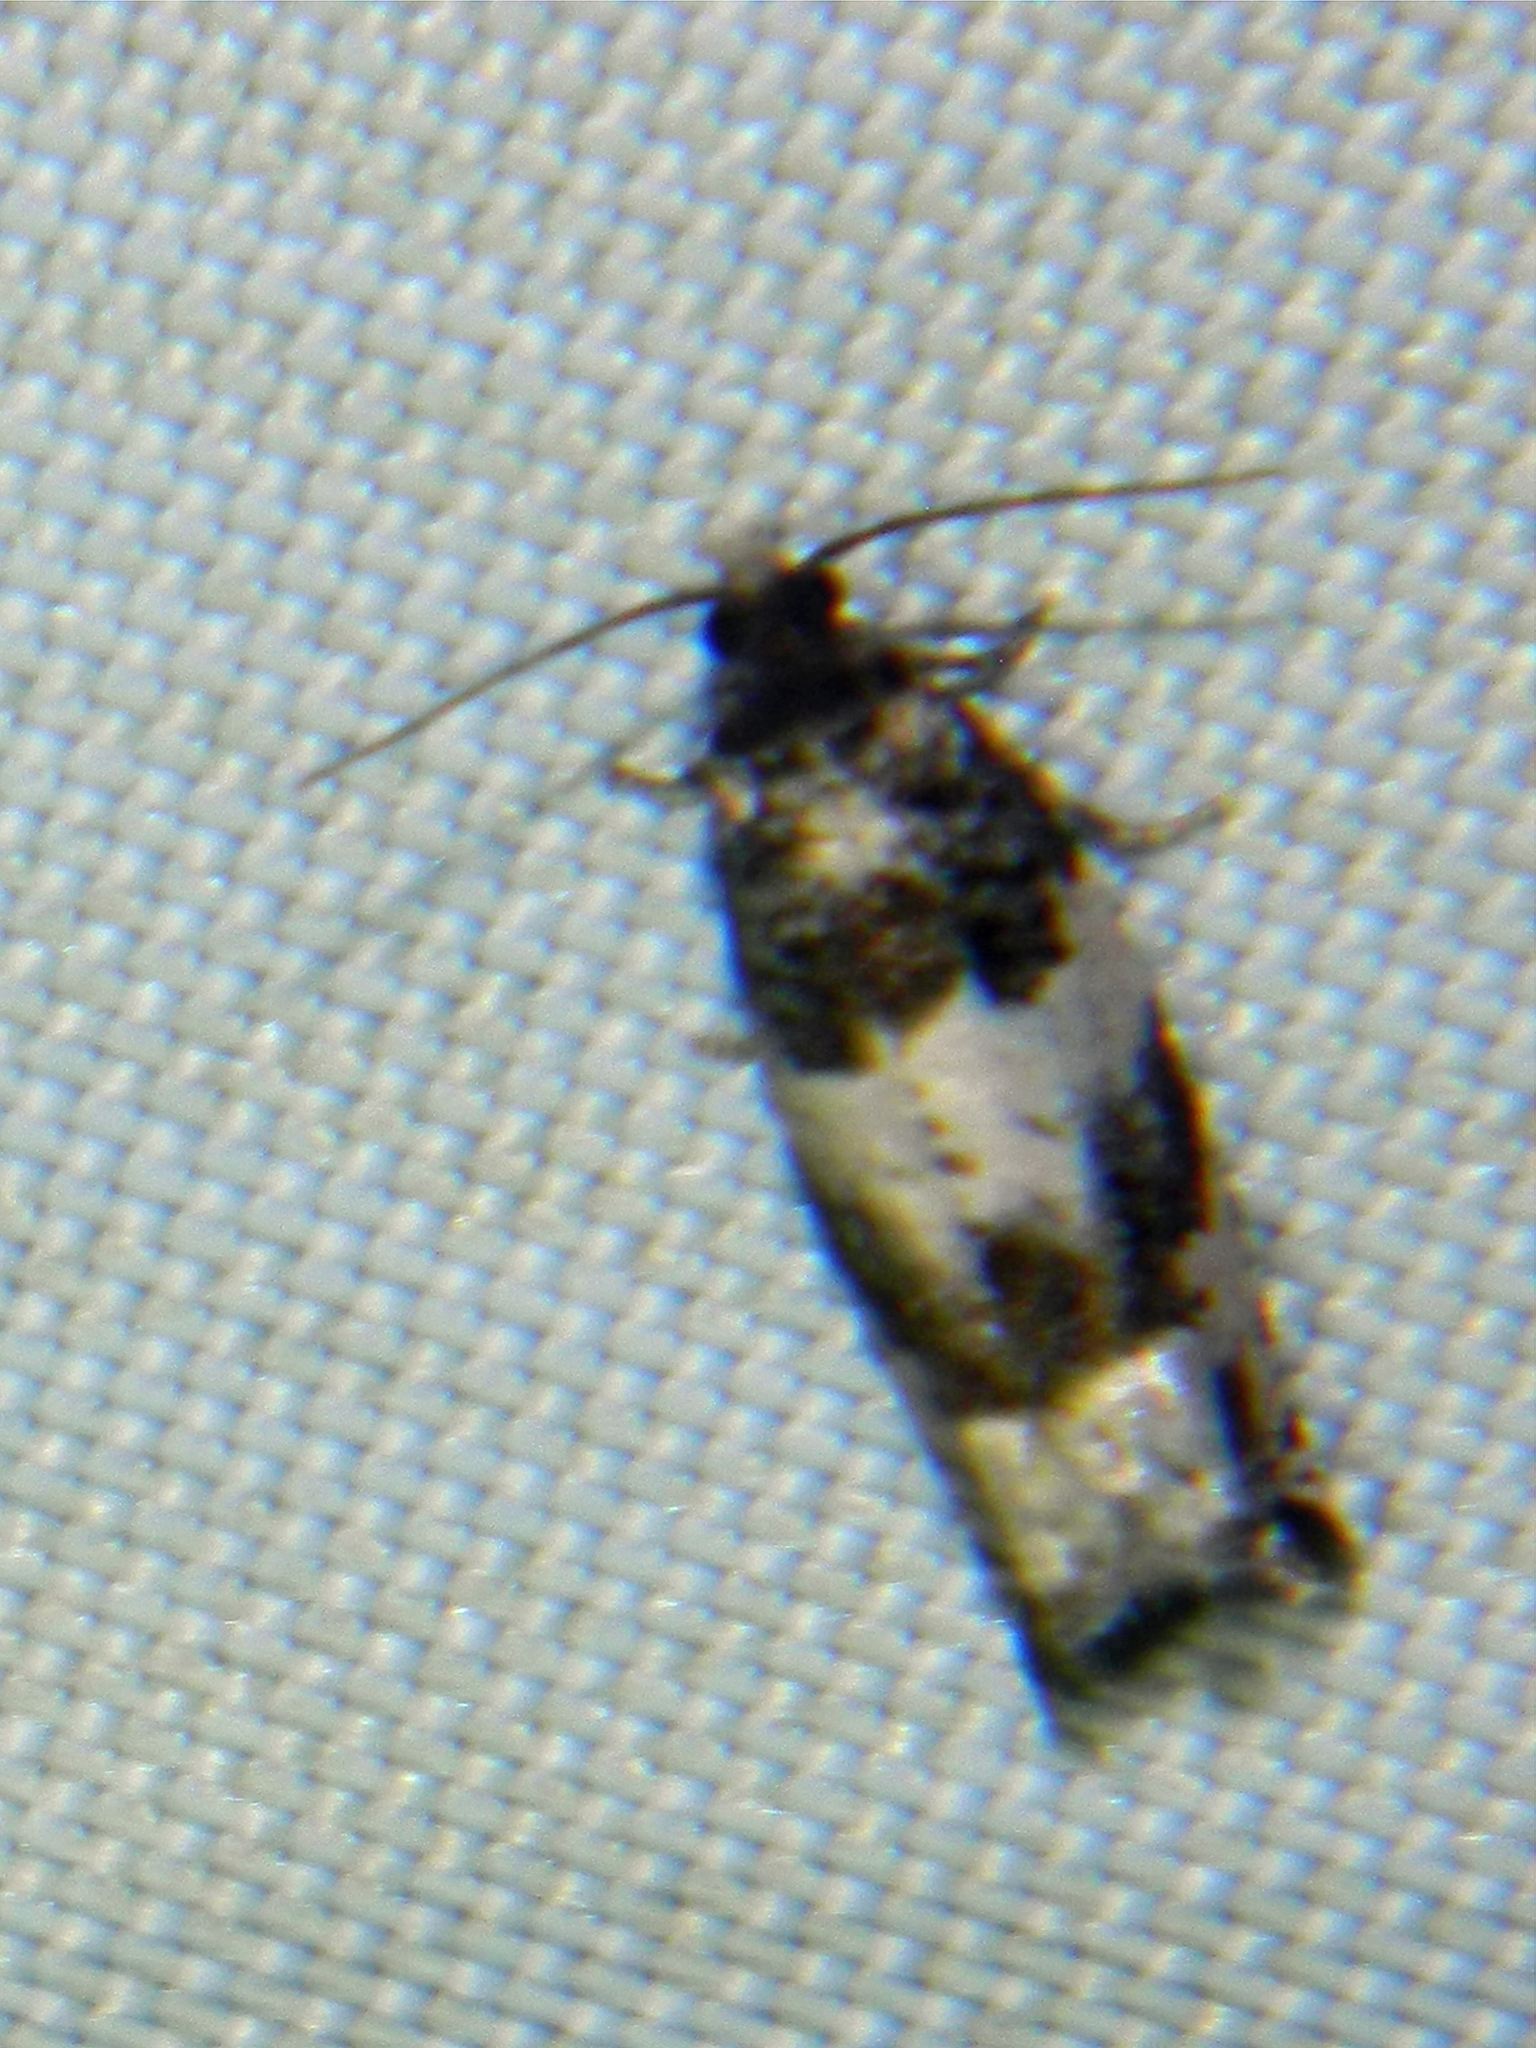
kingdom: Animalia
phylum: Arthropoda
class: Insecta
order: Lepidoptera
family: Tortricidae
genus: Gypsonoma
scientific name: Gypsonoma fasciolana
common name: Willow-and-poplar leafroller
